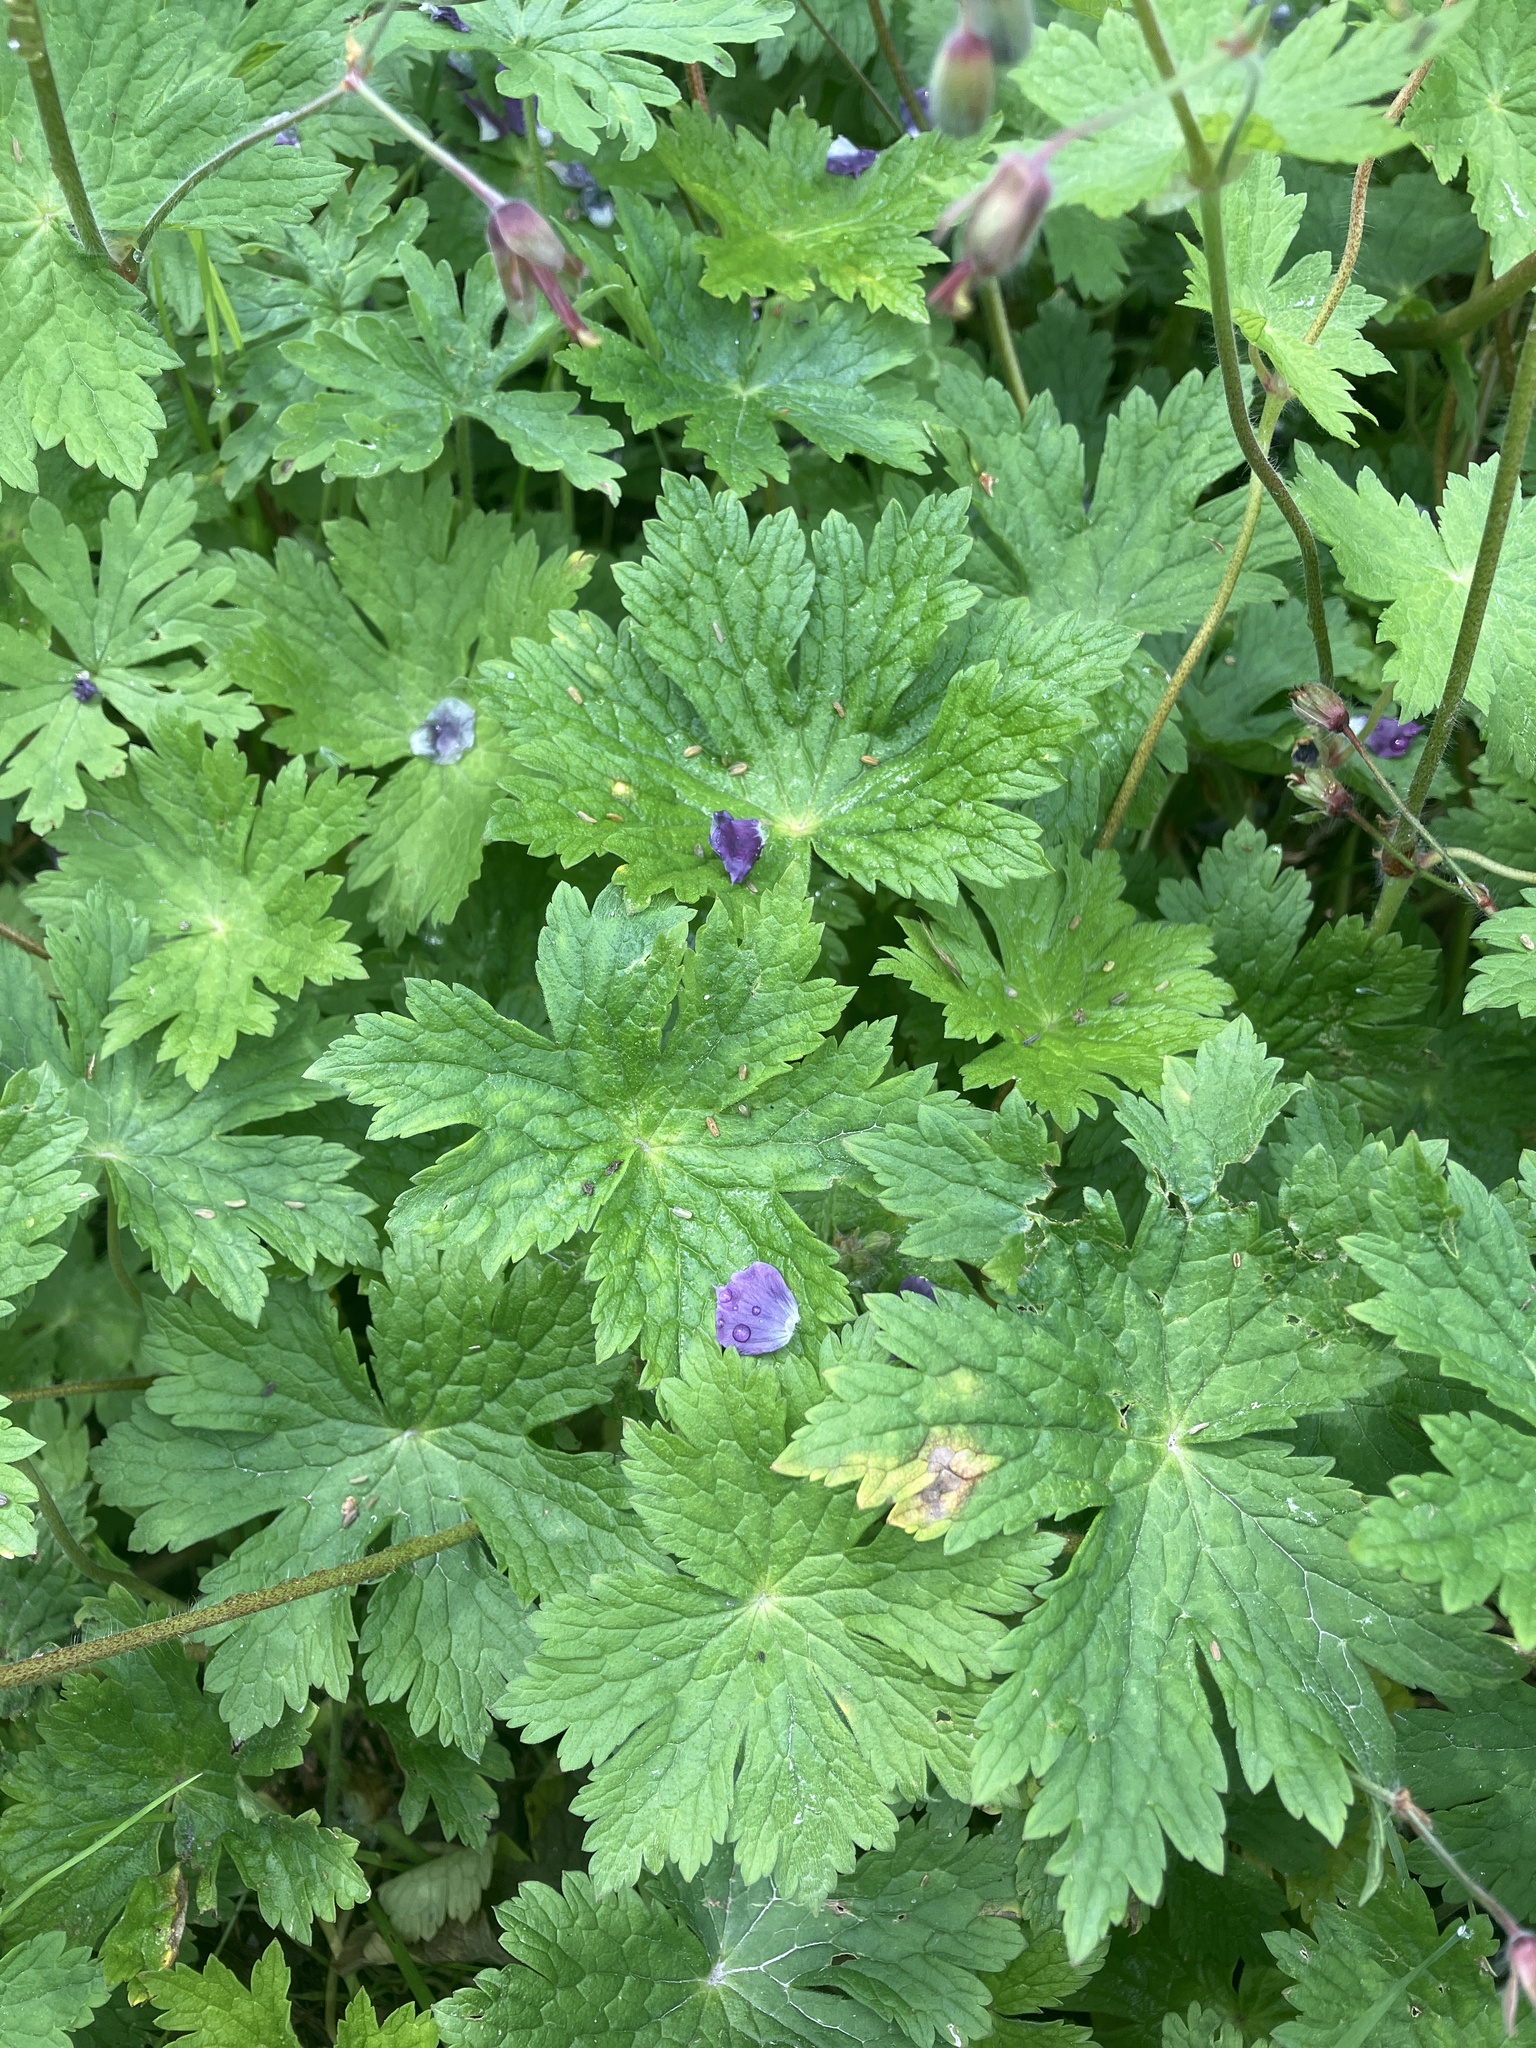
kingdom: Plantae
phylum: Tracheophyta
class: Magnoliopsida
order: Geraniales
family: Geraniaceae
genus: Geranium
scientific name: Geranium phaeum
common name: Dusky crane's-bill
